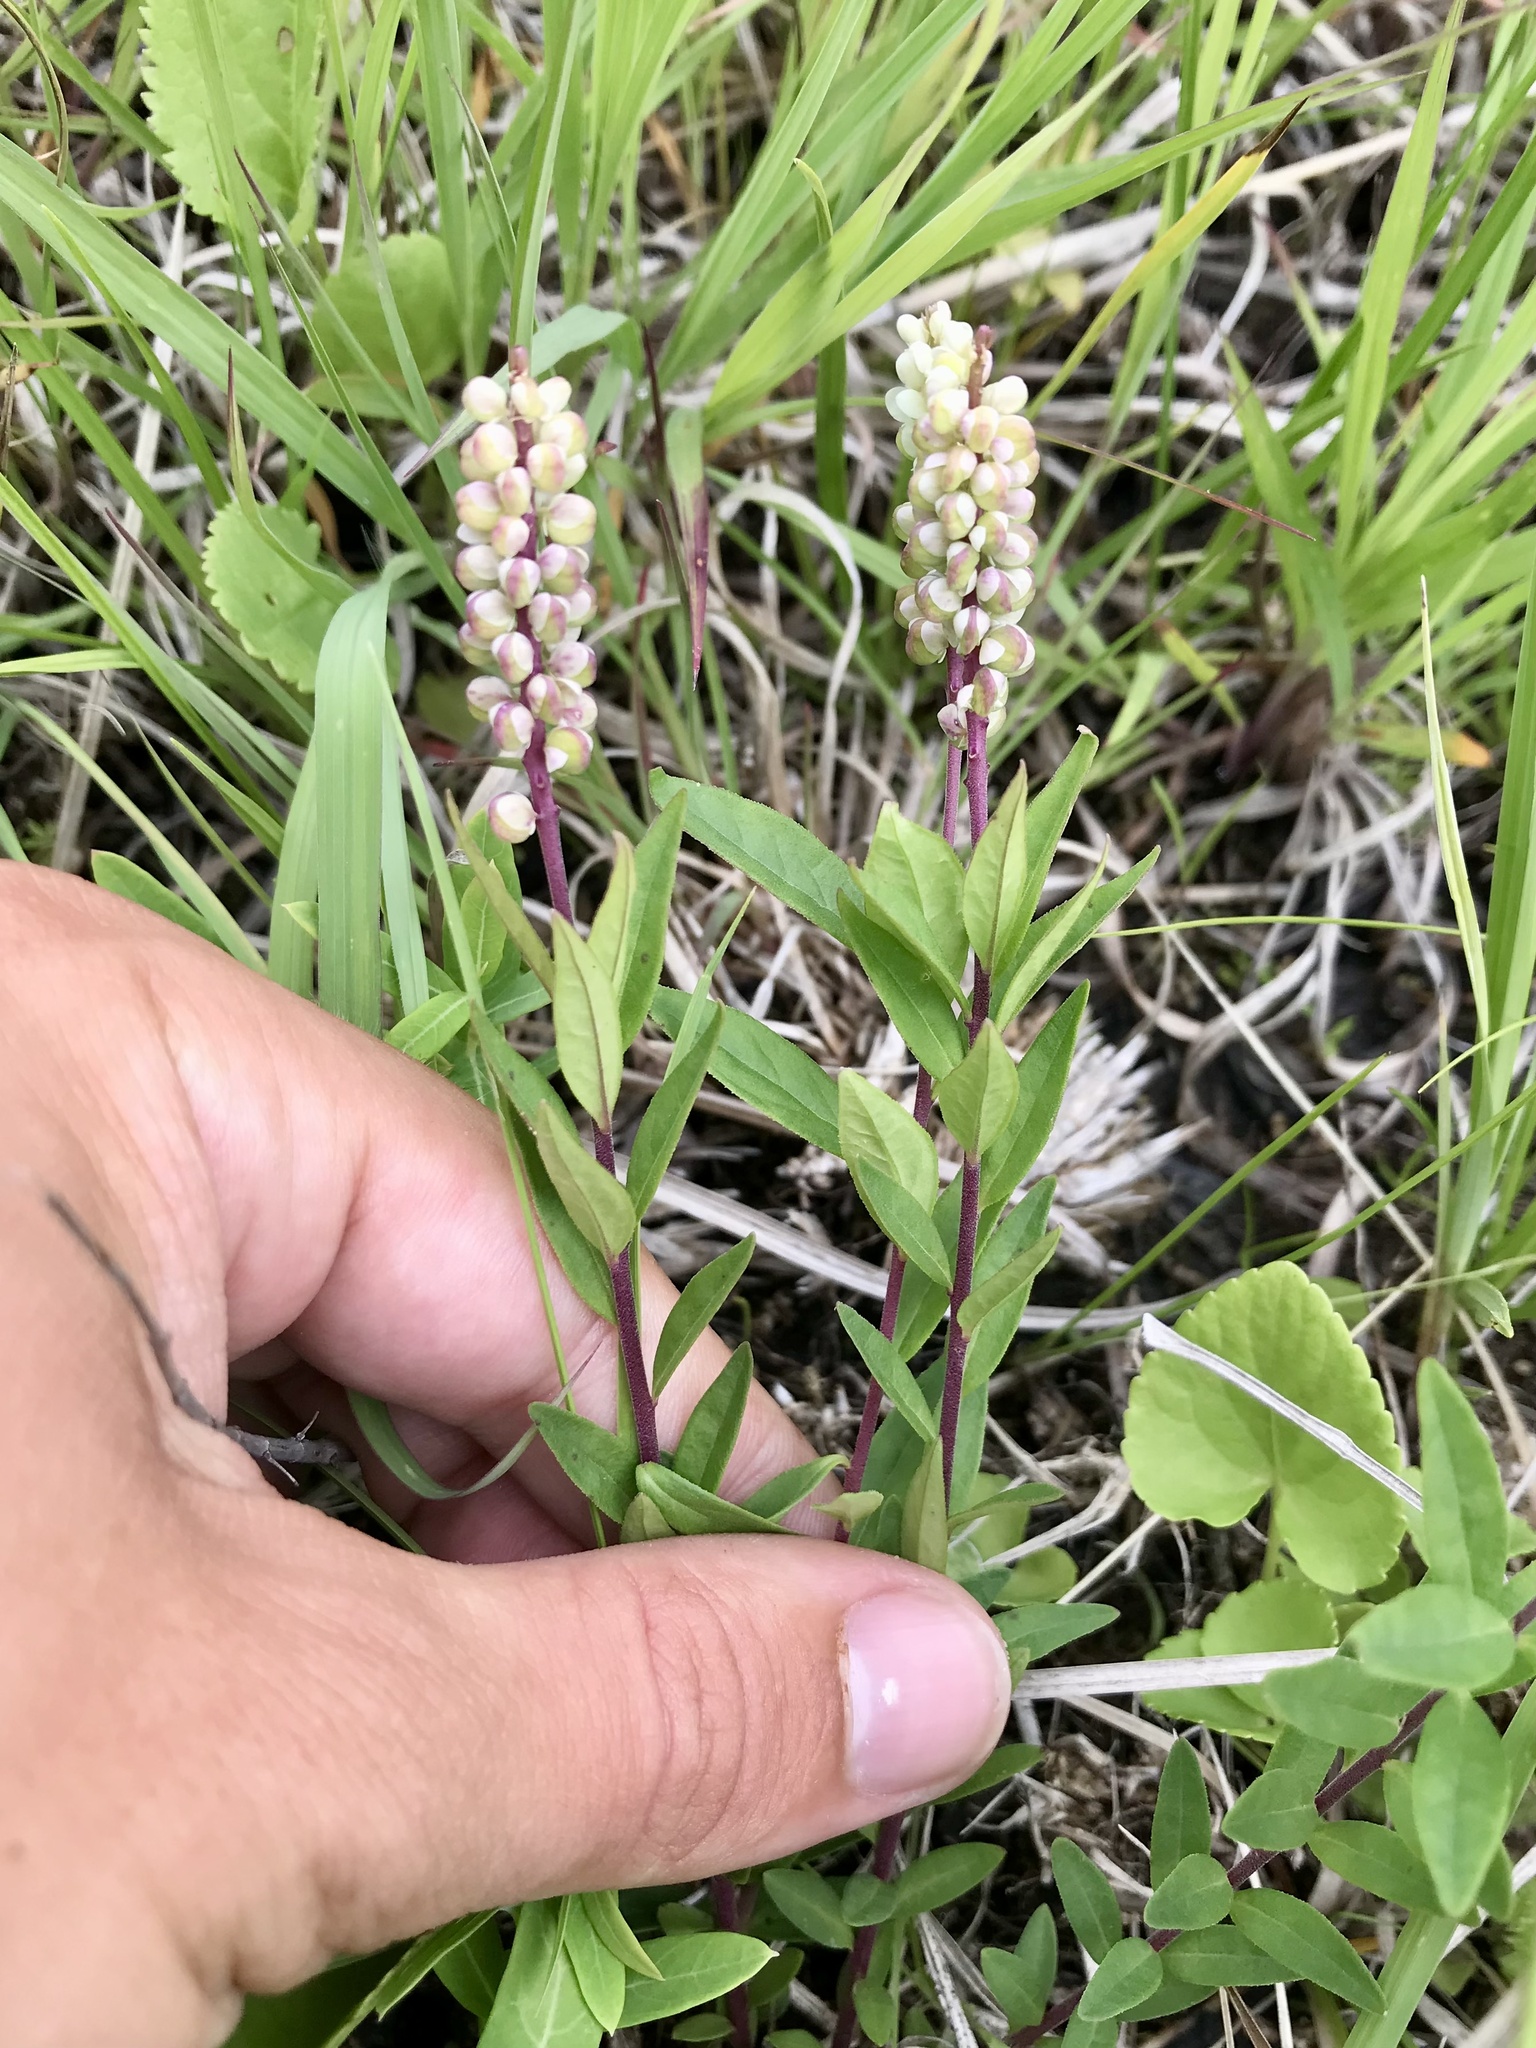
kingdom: Plantae
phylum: Tracheophyta
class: Magnoliopsida
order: Fabales
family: Polygalaceae
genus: Polygala
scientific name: Polygala senega
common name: Seneca snakeroot
